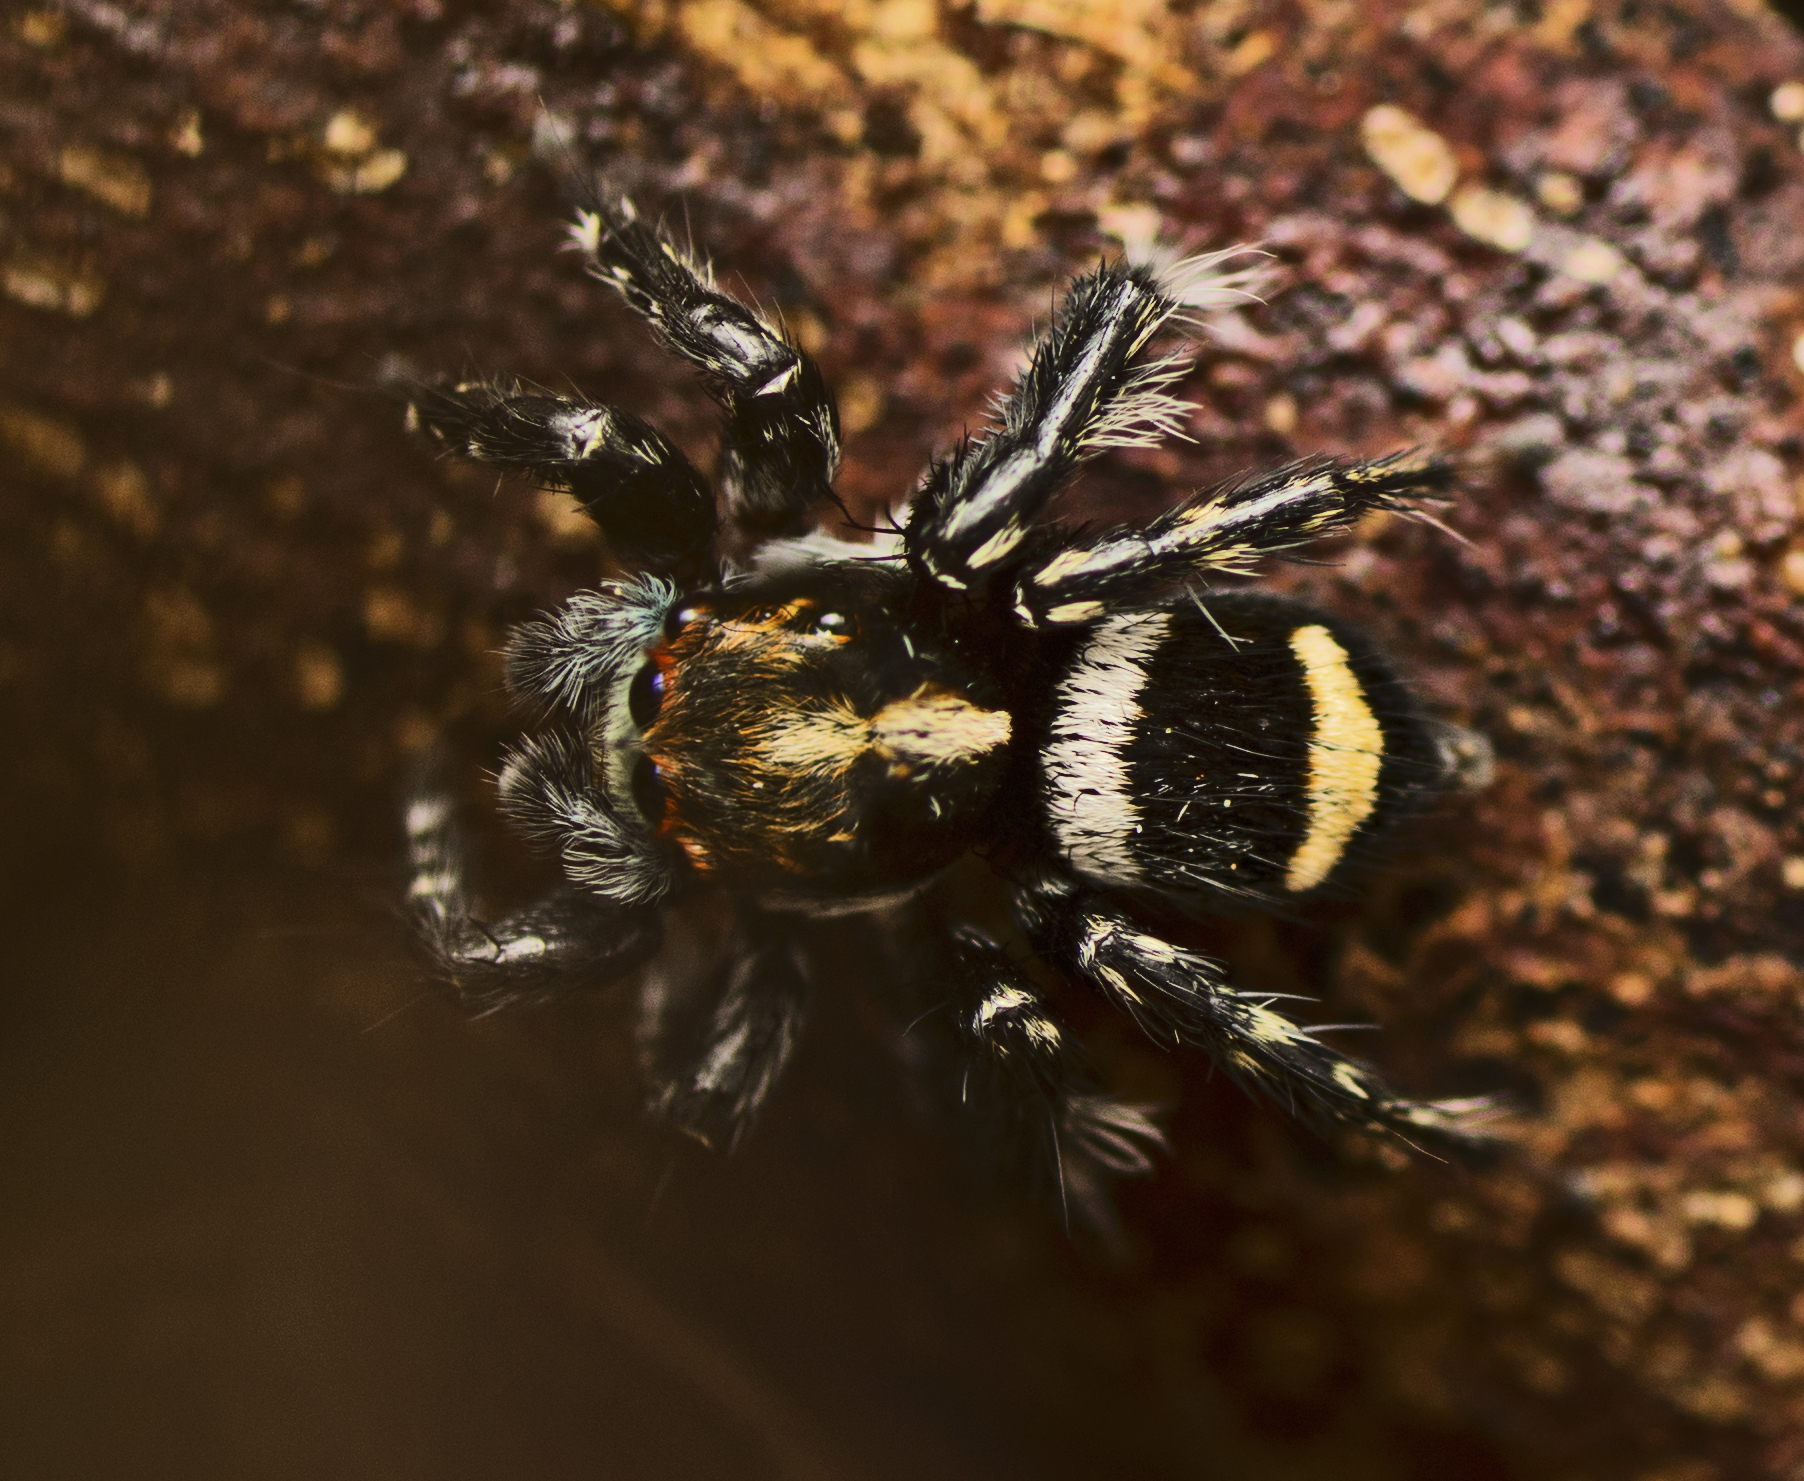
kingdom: Animalia
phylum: Arthropoda
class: Arachnida
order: Araneae
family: Salticidae
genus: Saitis
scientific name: Saitis virgatus
